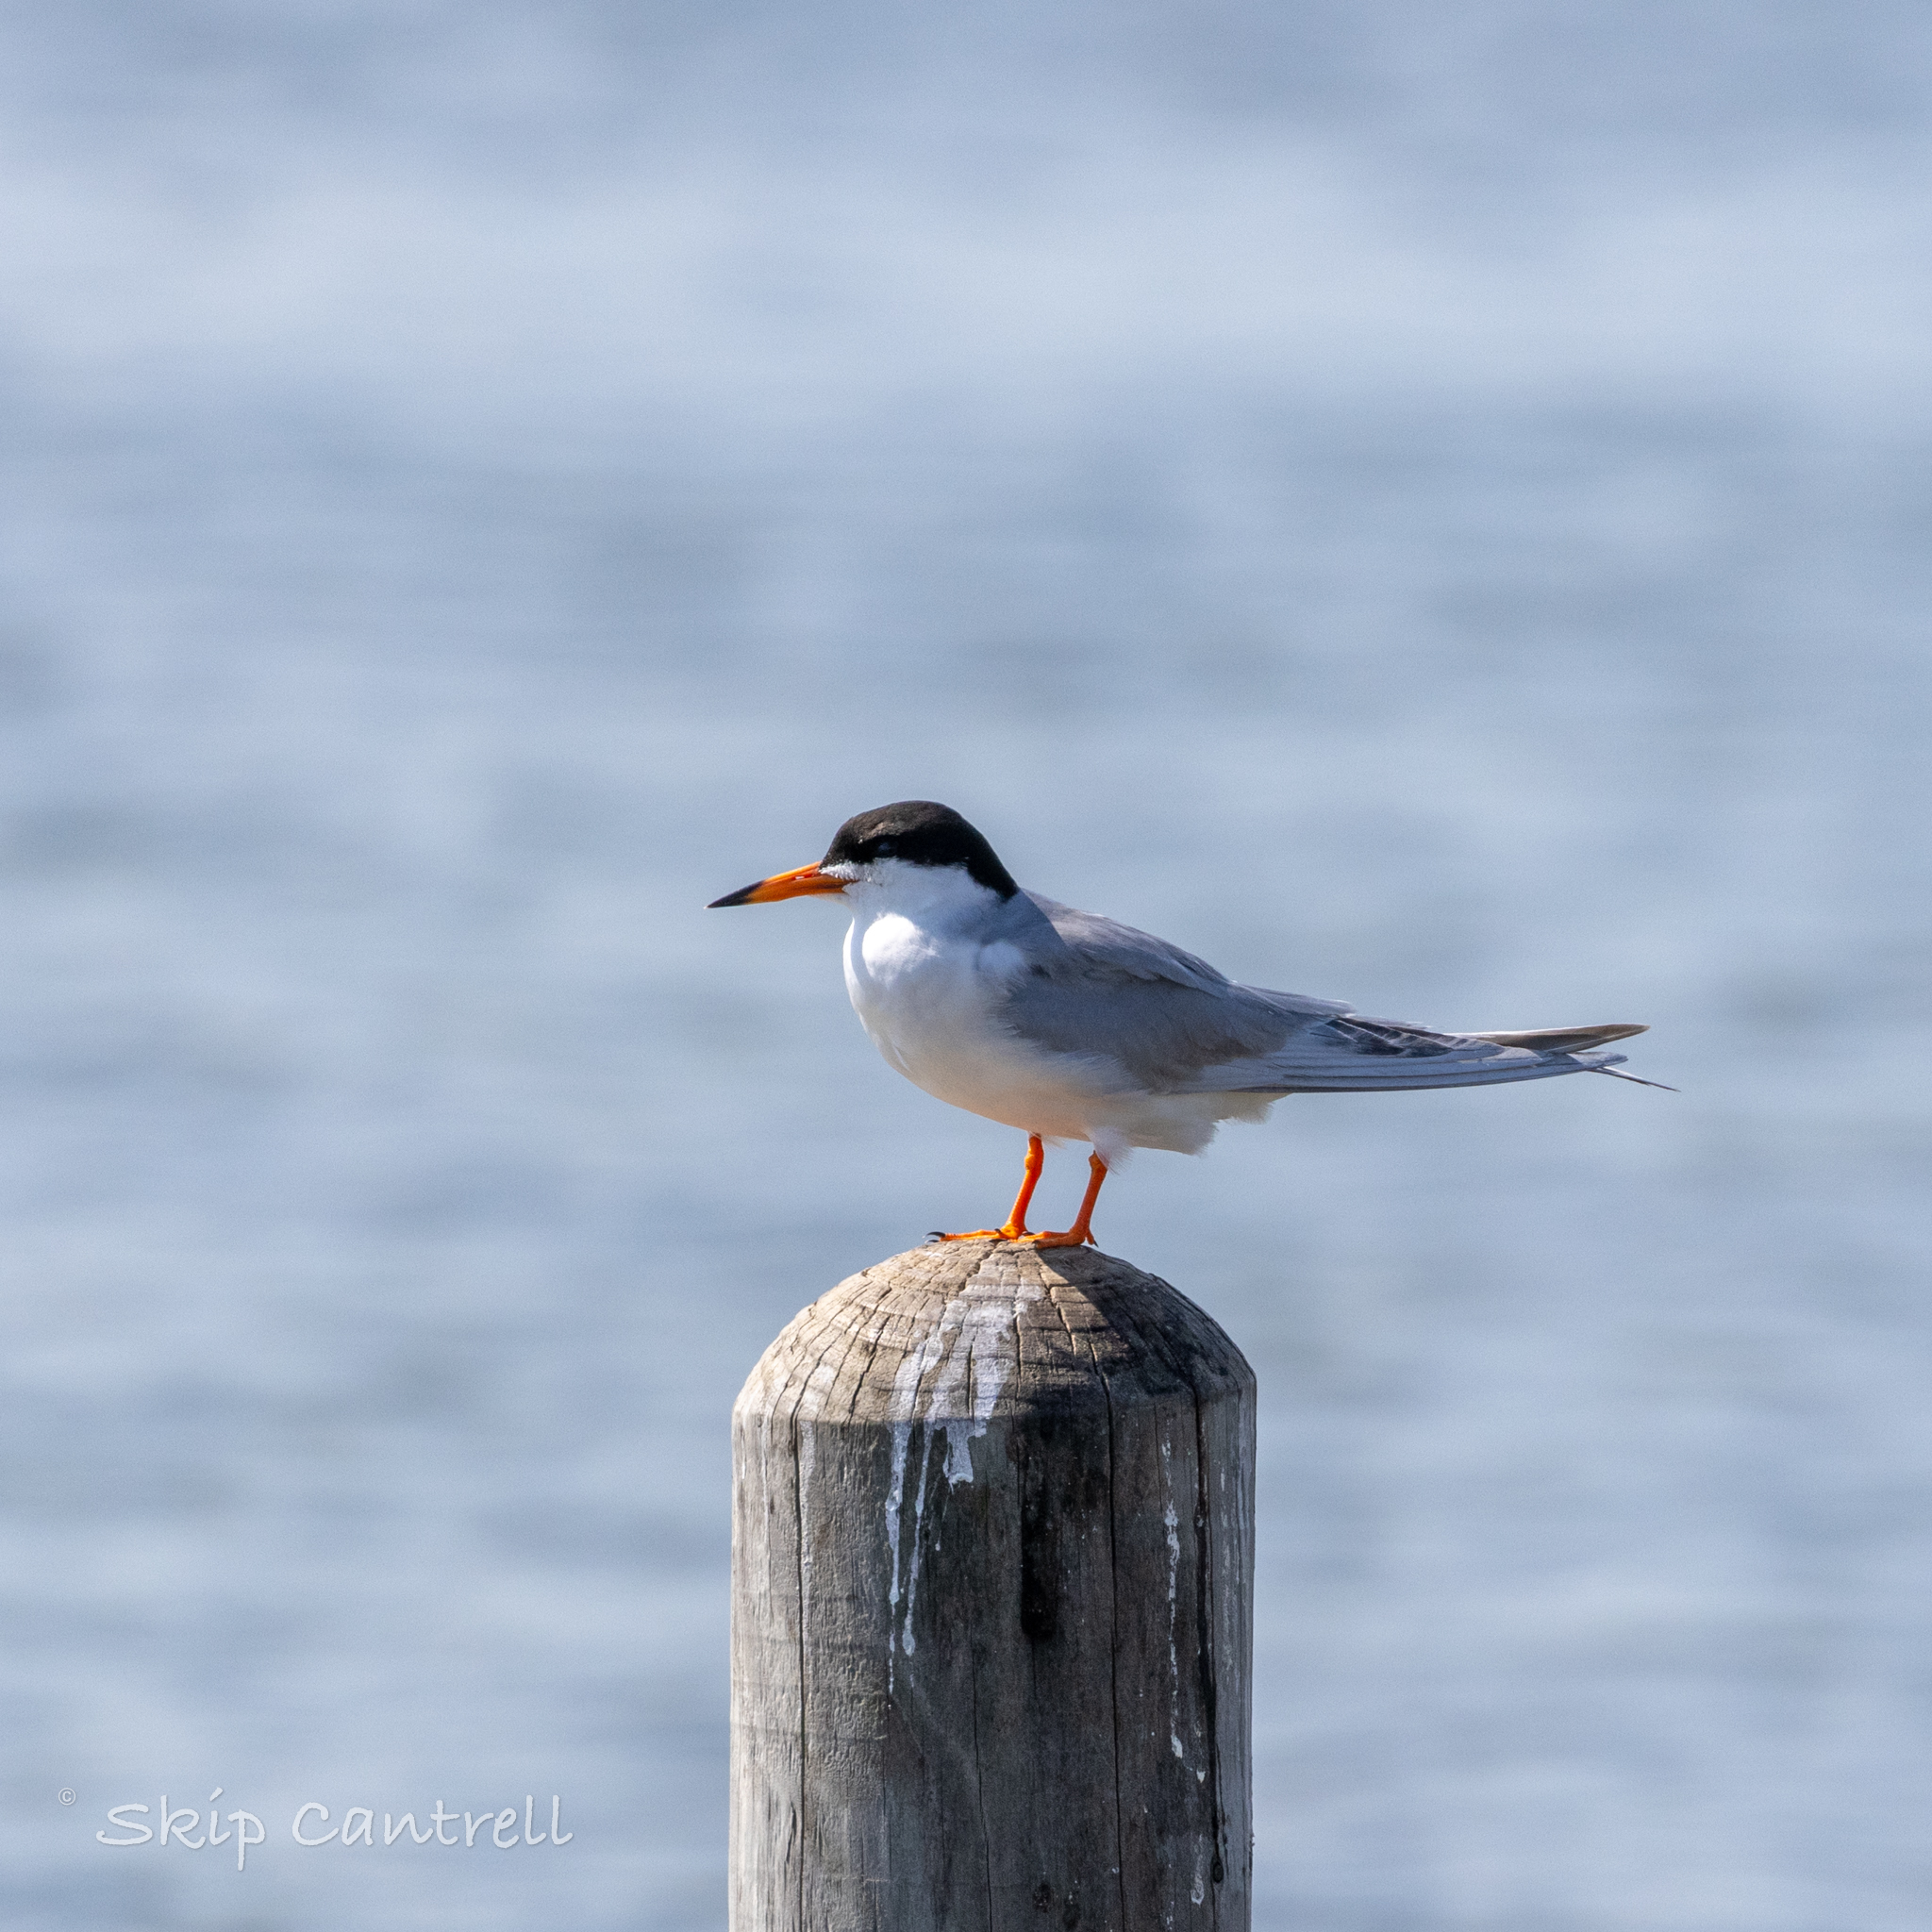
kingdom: Animalia
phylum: Chordata
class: Aves
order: Charadriiformes
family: Laridae
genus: Sterna
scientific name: Sterna forsteri
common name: Forster's tern
